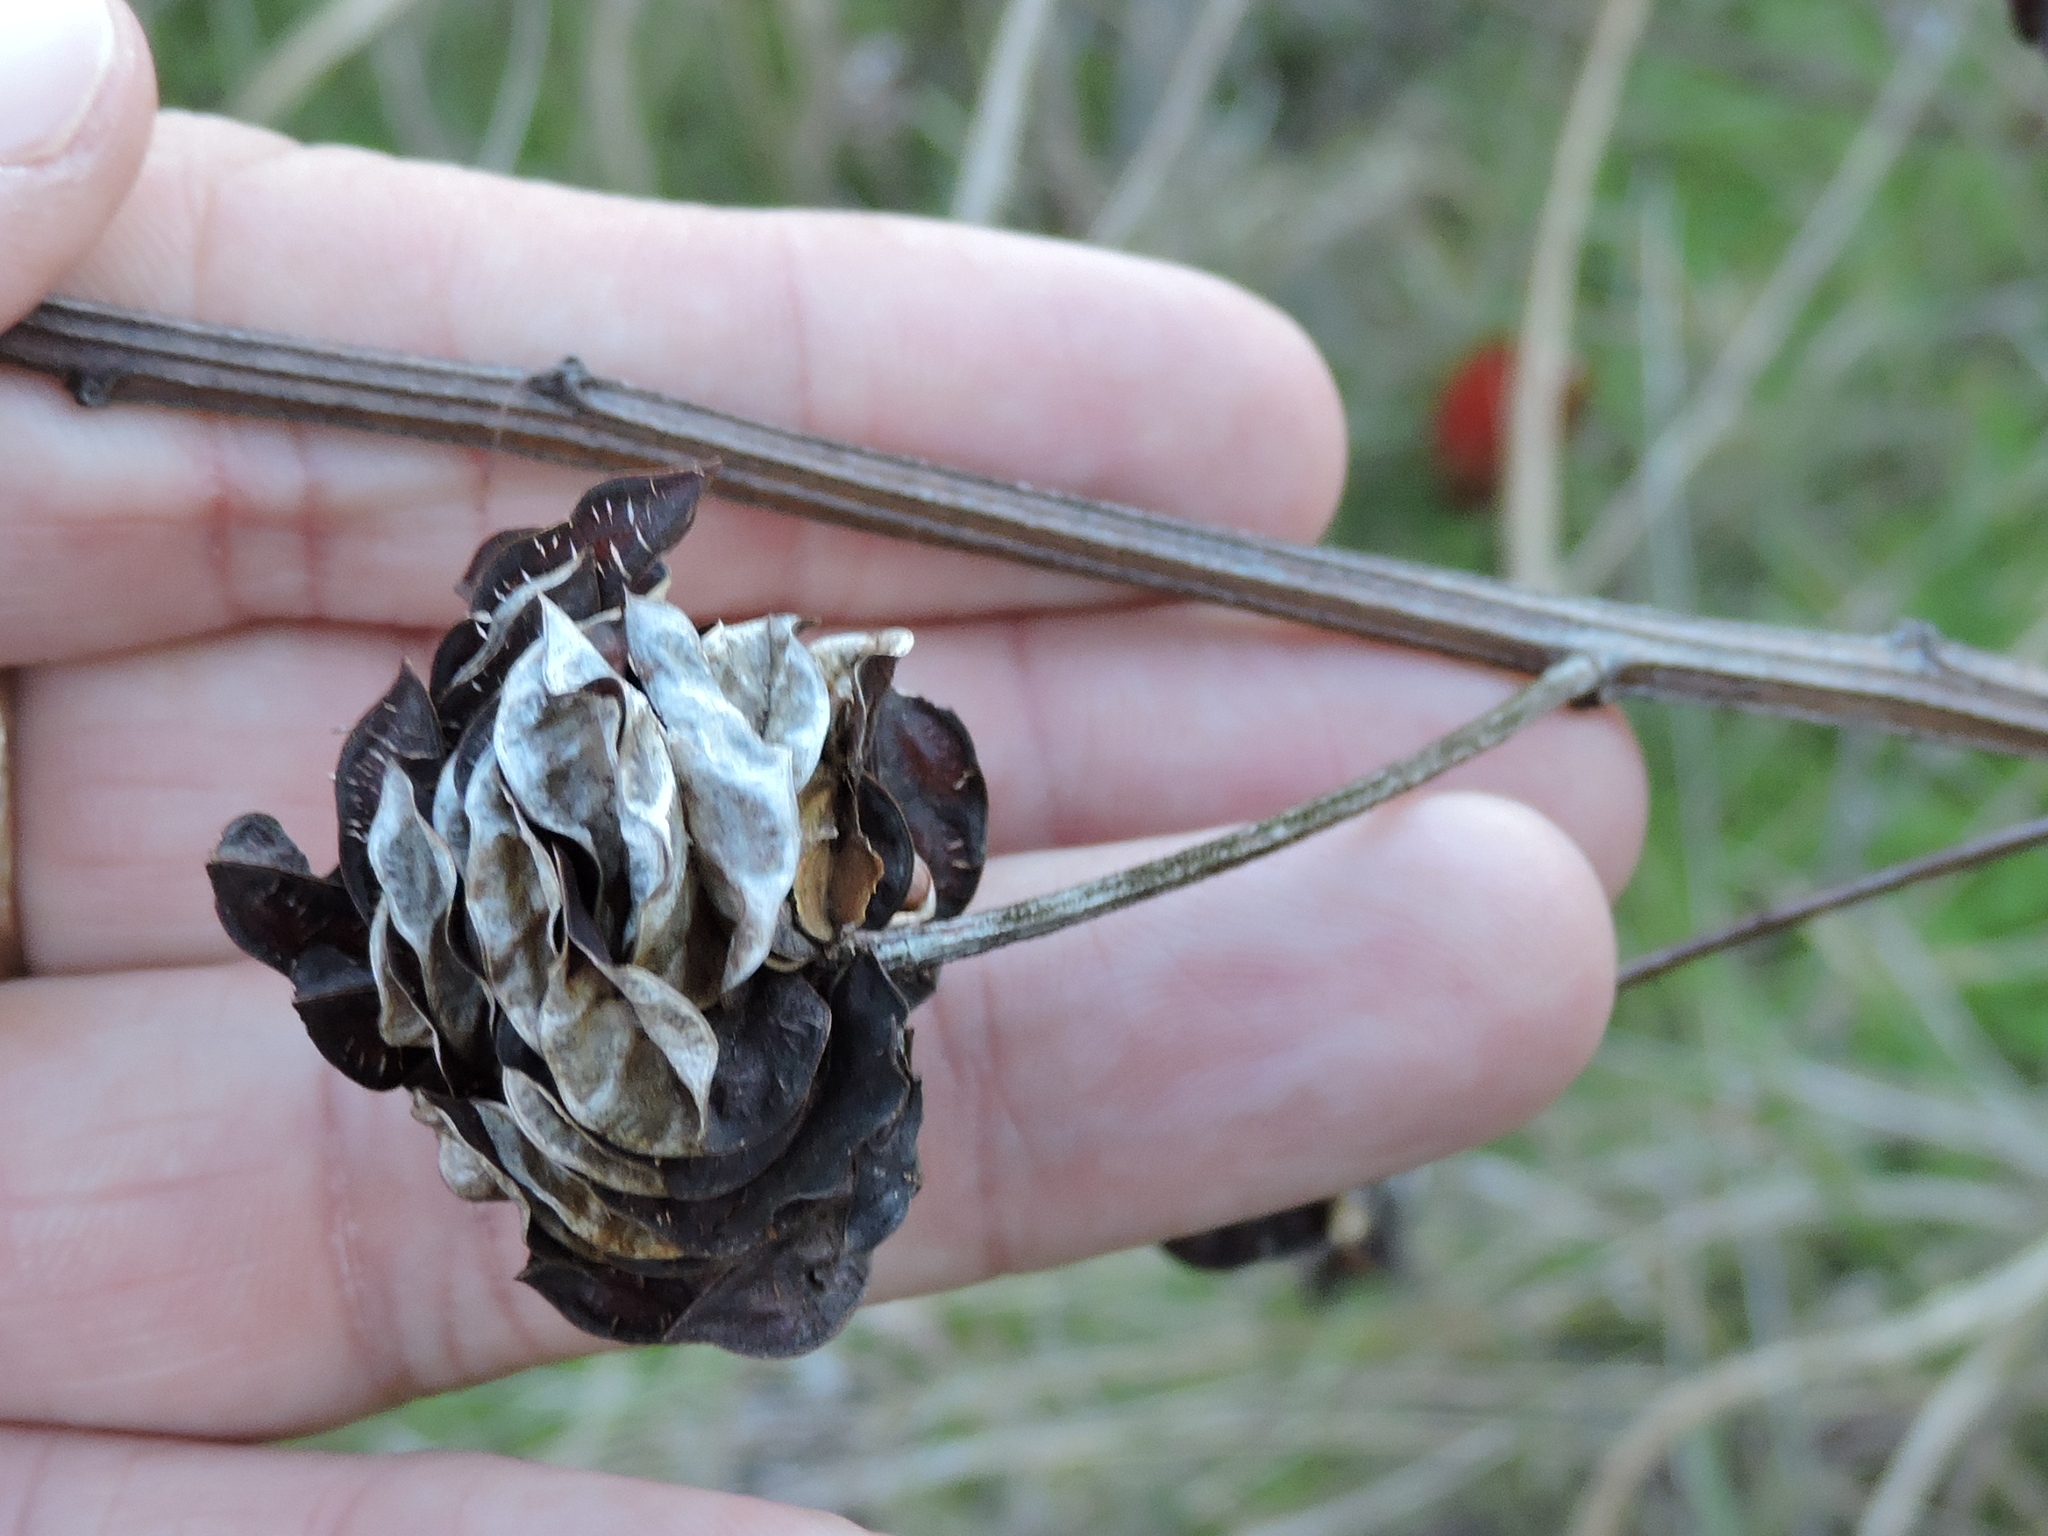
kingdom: Plantae
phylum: Tracheophyta
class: Magnoliopsida
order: Fabales
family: Fabaceae
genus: Desmanthus
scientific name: Desmanthus illinoensis
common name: Illinois bundle-flower
